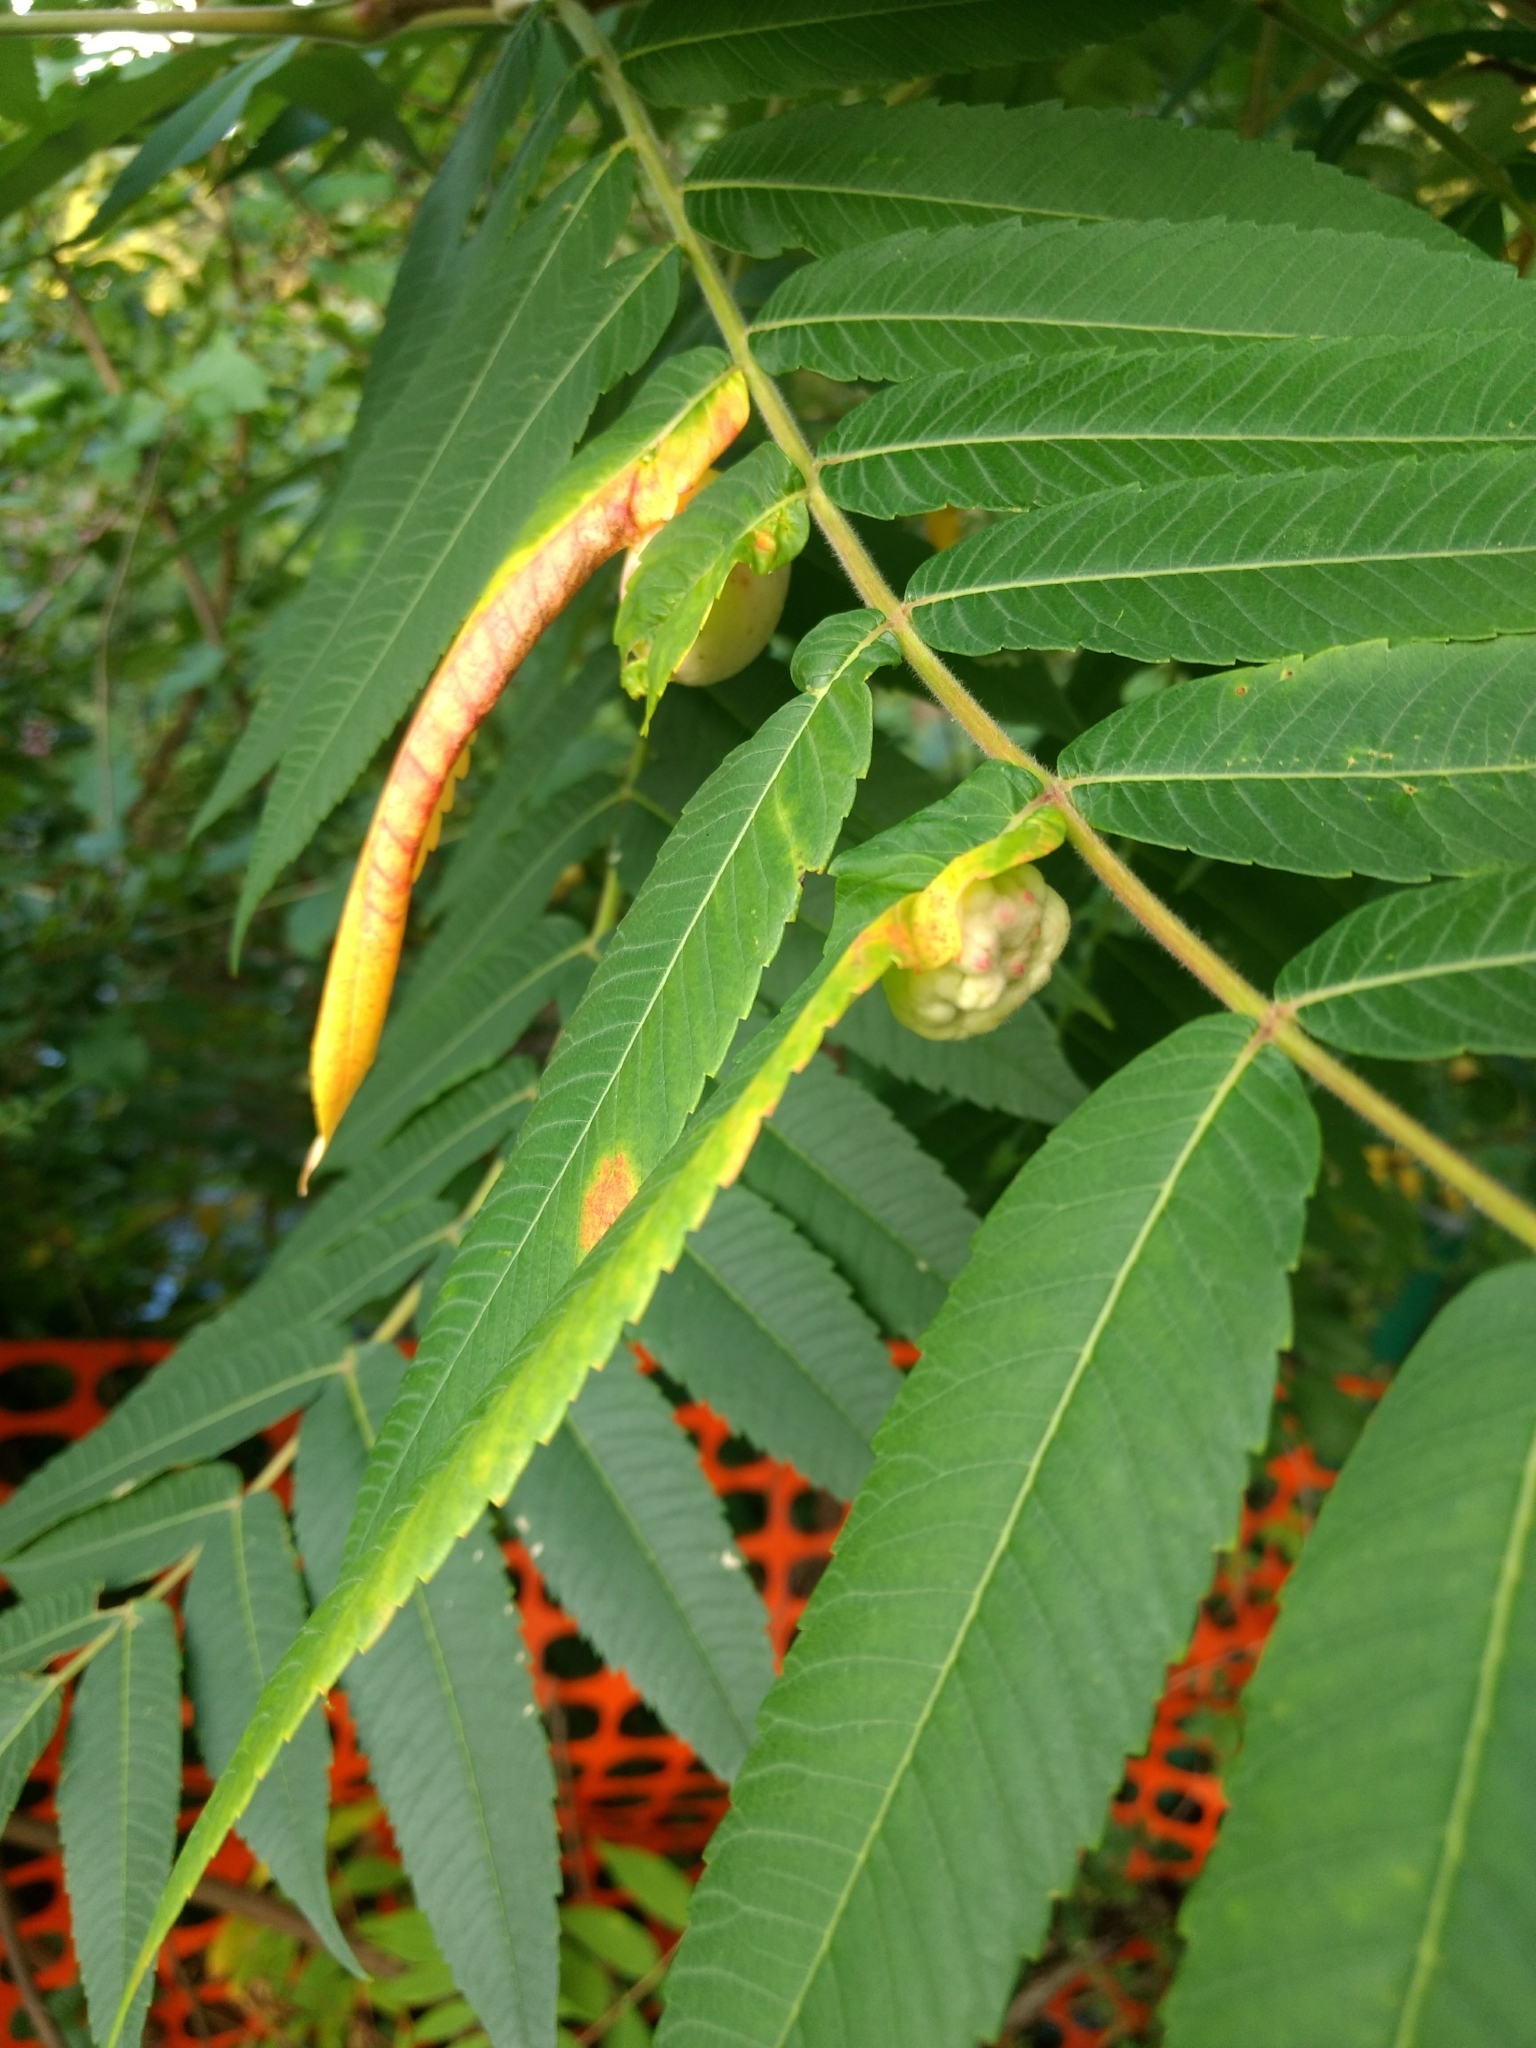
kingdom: Animalia
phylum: Arthropoda
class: Insecta
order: Hemiptera
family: Aphididae
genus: Melaphis
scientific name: Melaphis rhois
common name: Sumac gall aphid
